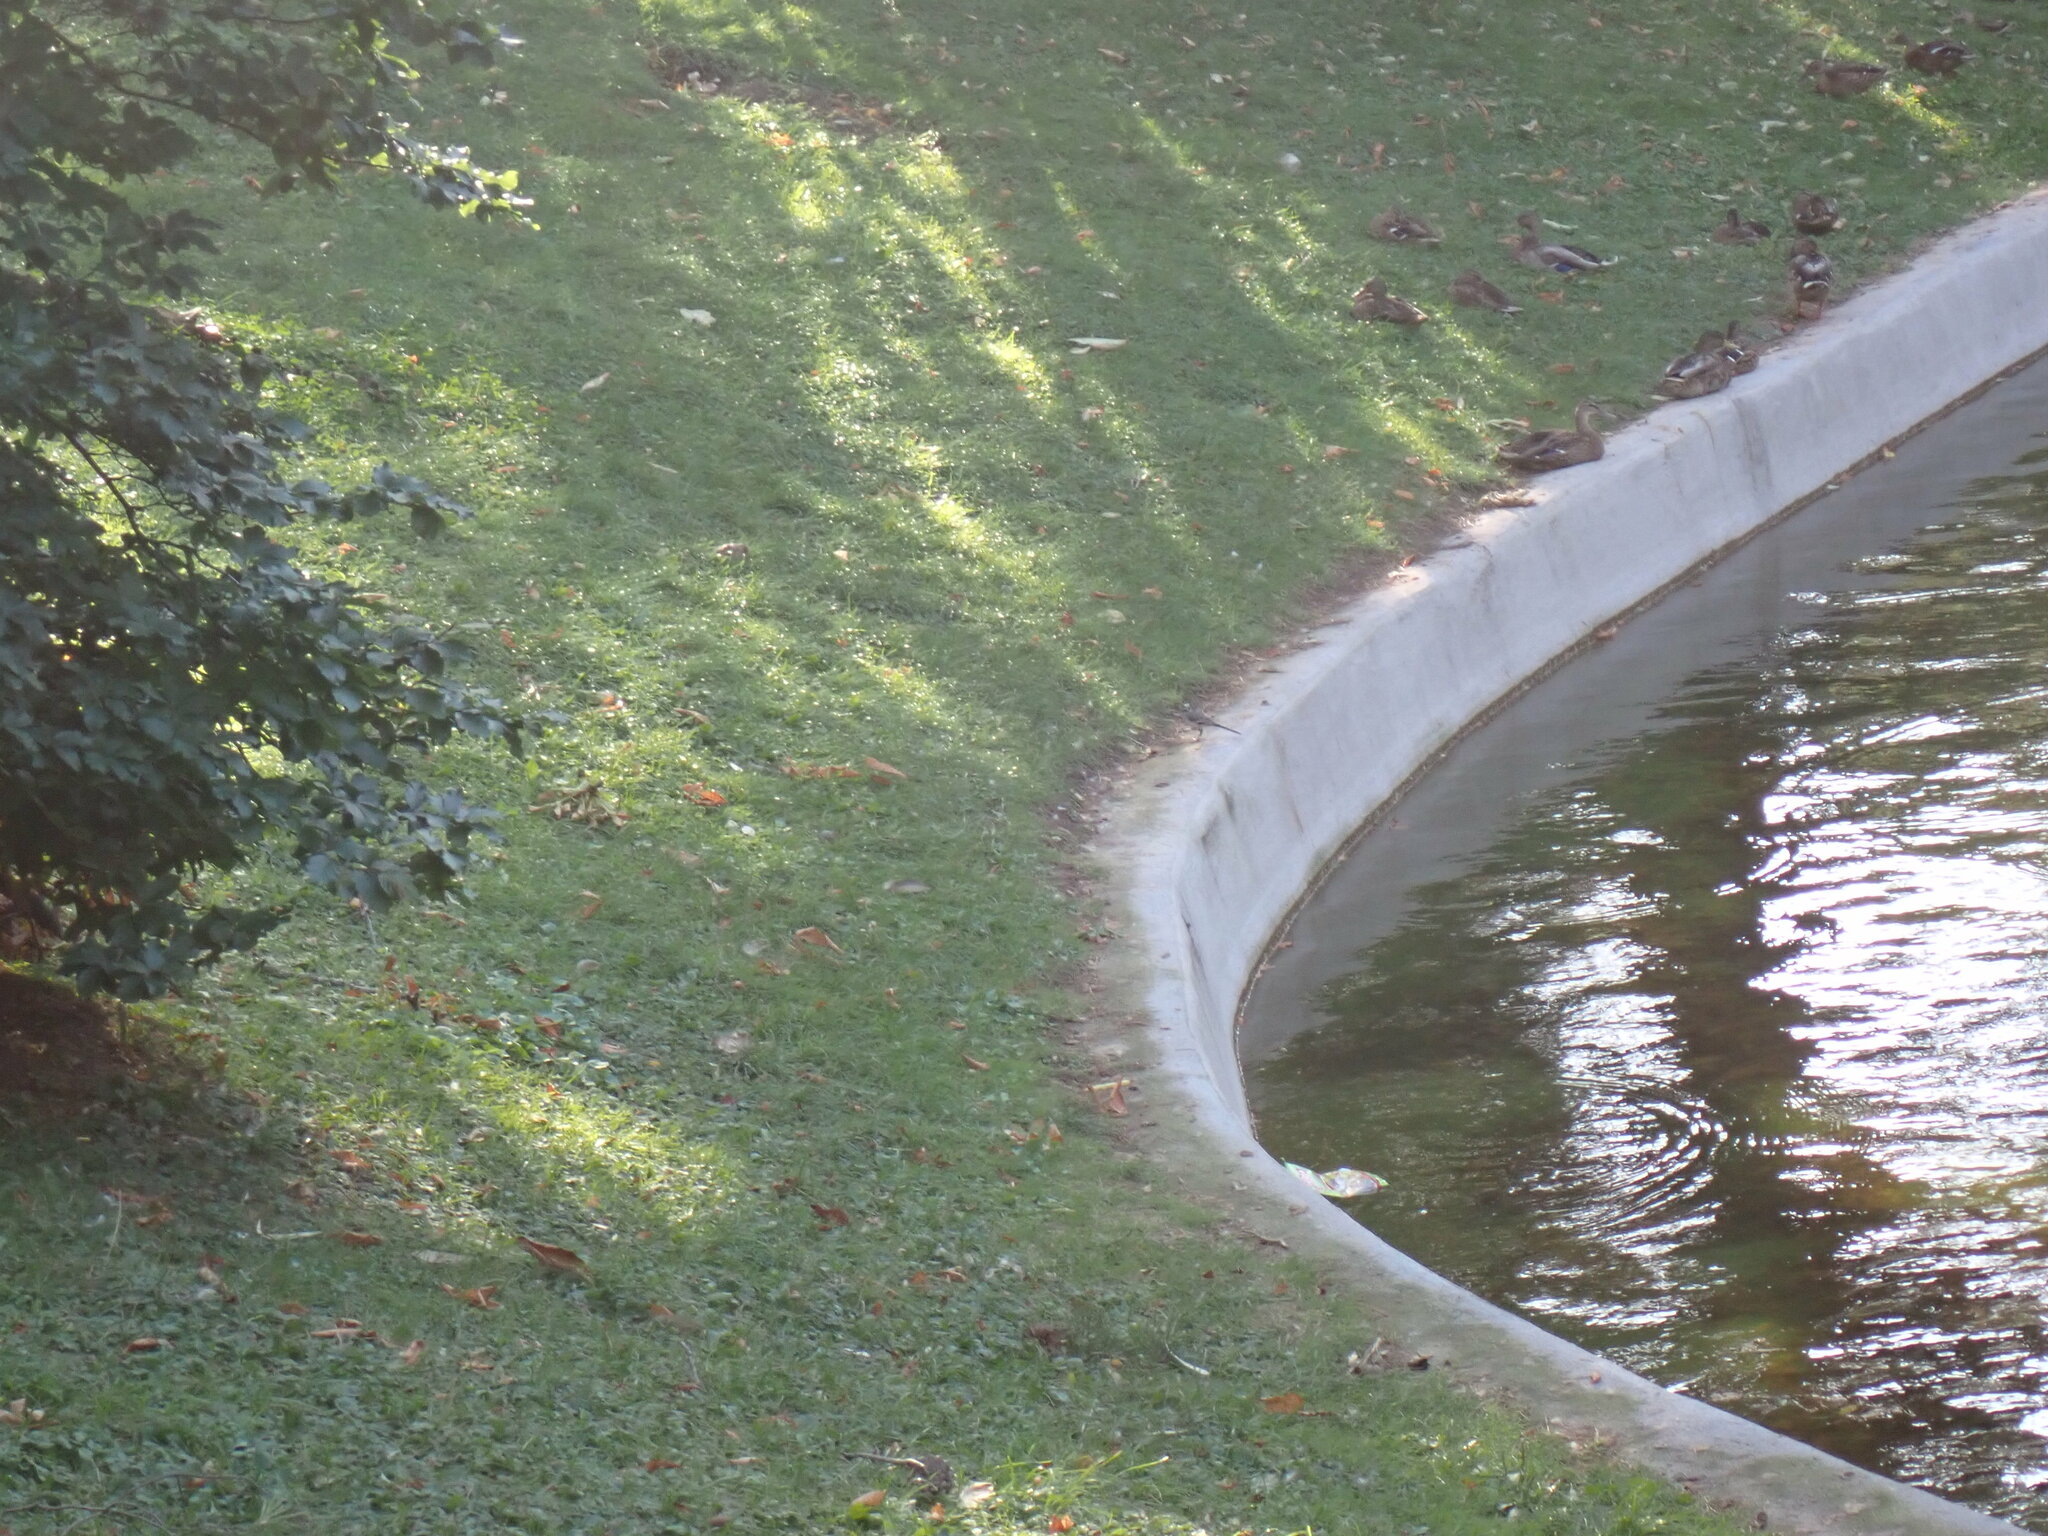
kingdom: Animalia
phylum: Chordata
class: Aves
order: Passeriformes
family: Motacillidae
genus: Motacilla
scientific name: Motacilla alba
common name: White wagtail
